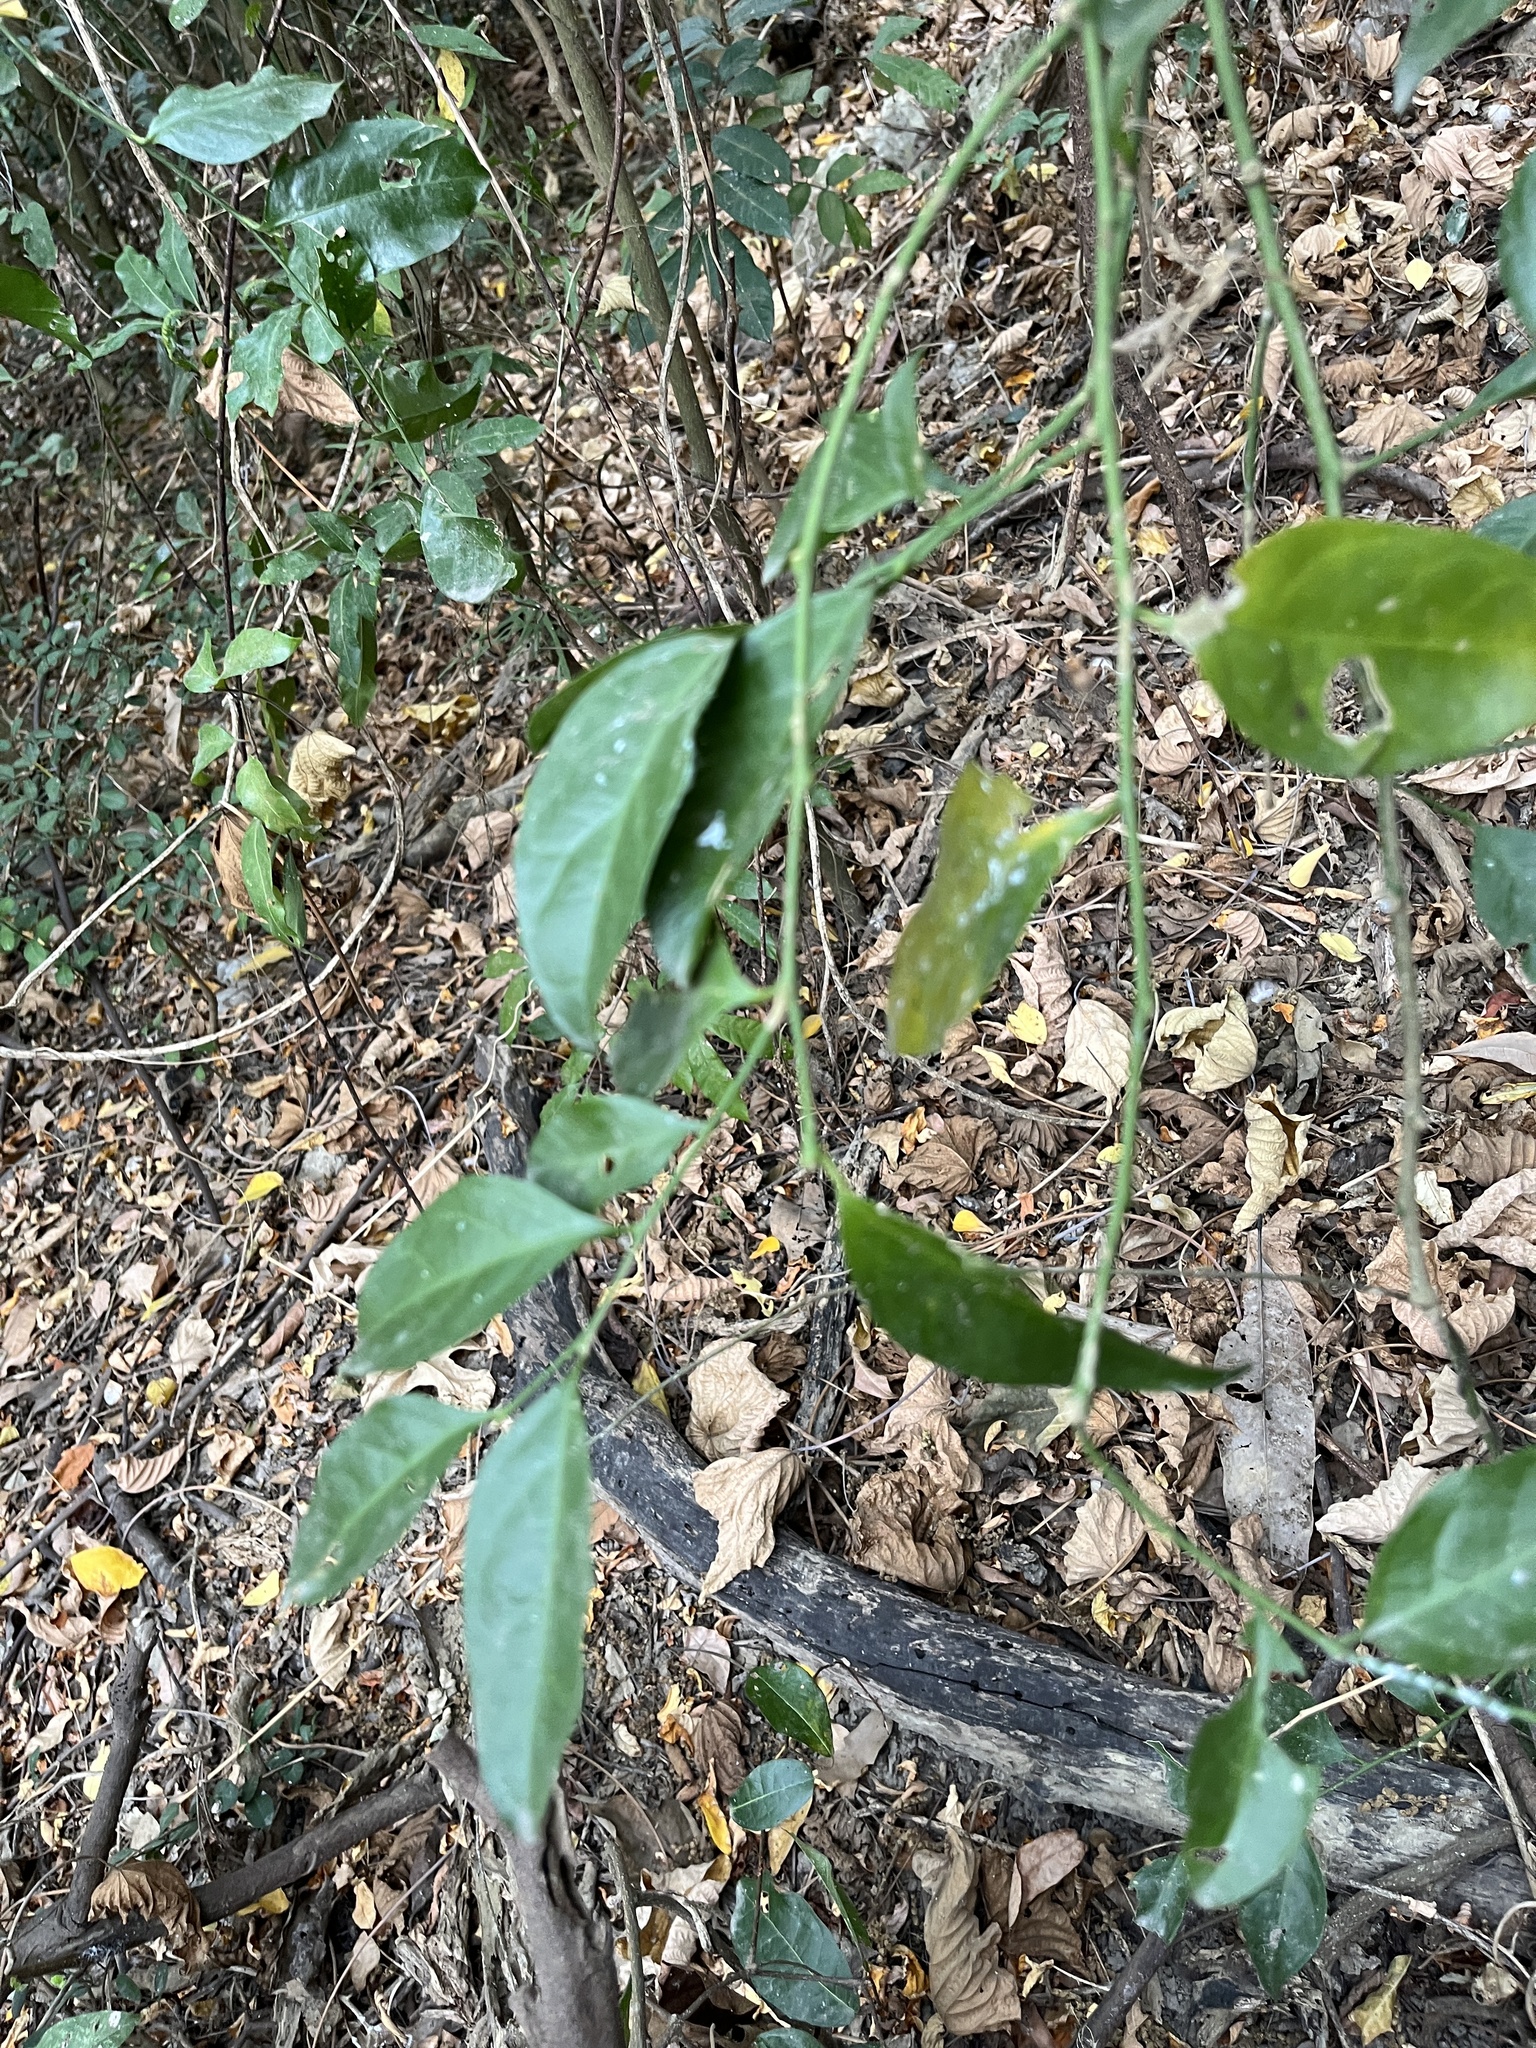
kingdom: Plantae
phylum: Tracheophyta
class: Magnoliopsida
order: Santalales
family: Opiliaceae
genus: Champereia
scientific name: Champereia manillana
